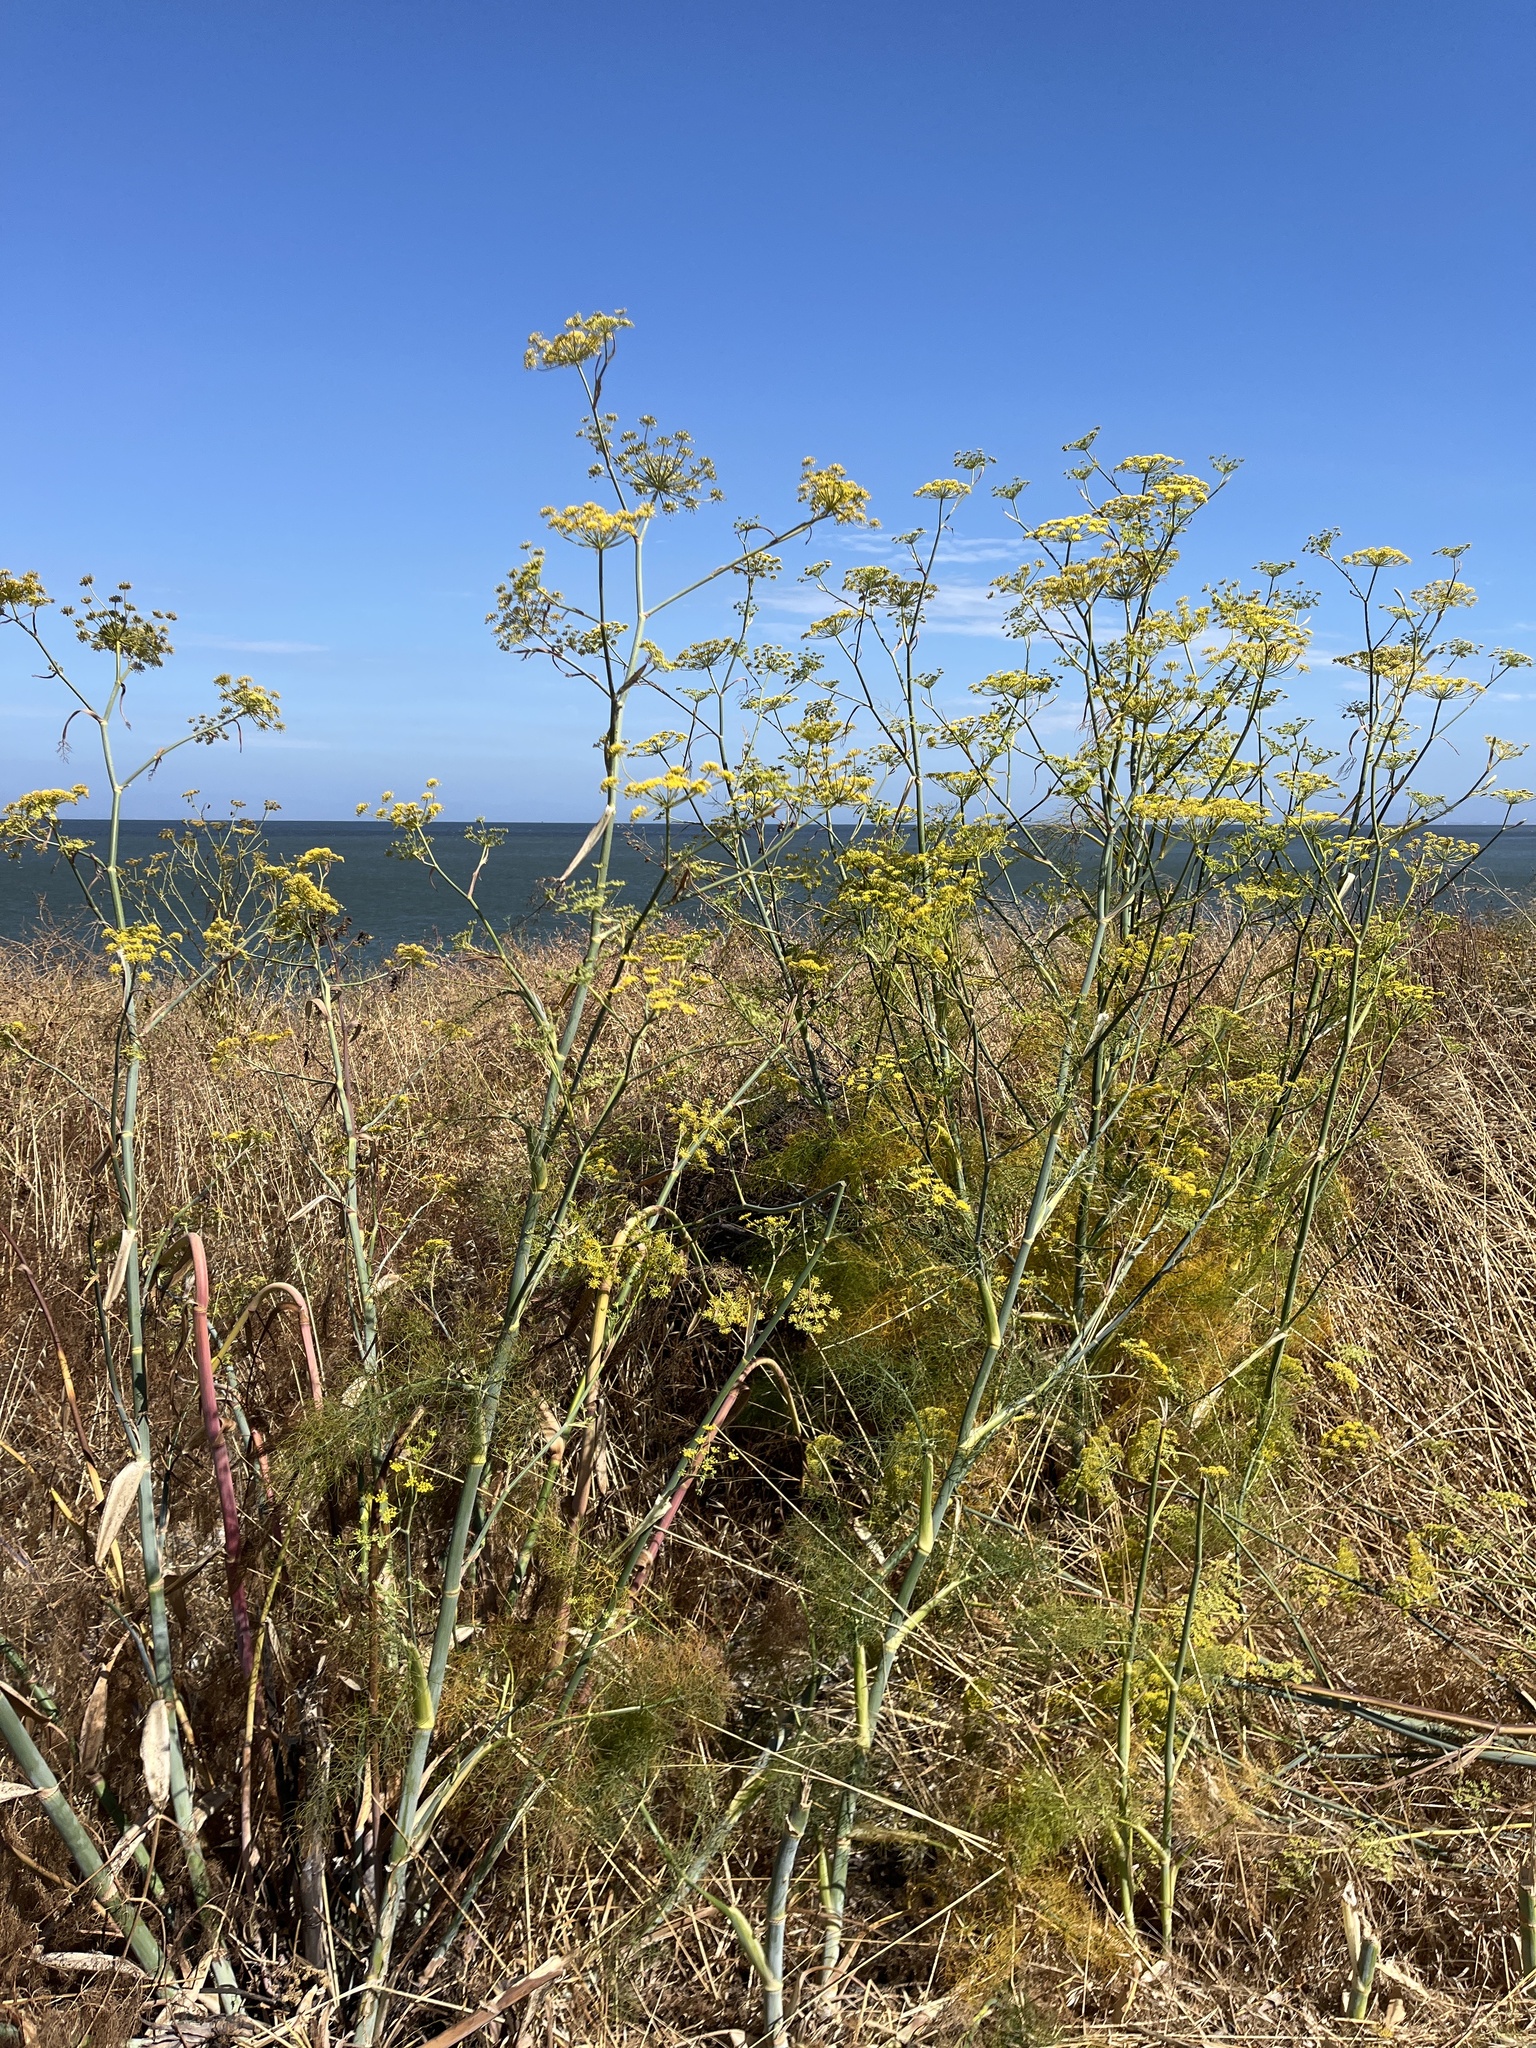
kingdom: Plantae
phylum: Tracheophyta
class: Magnoliopsida
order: Apiales
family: Apiaceae
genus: Foeniculum
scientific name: Foeniculum vulgare
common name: Fennel
